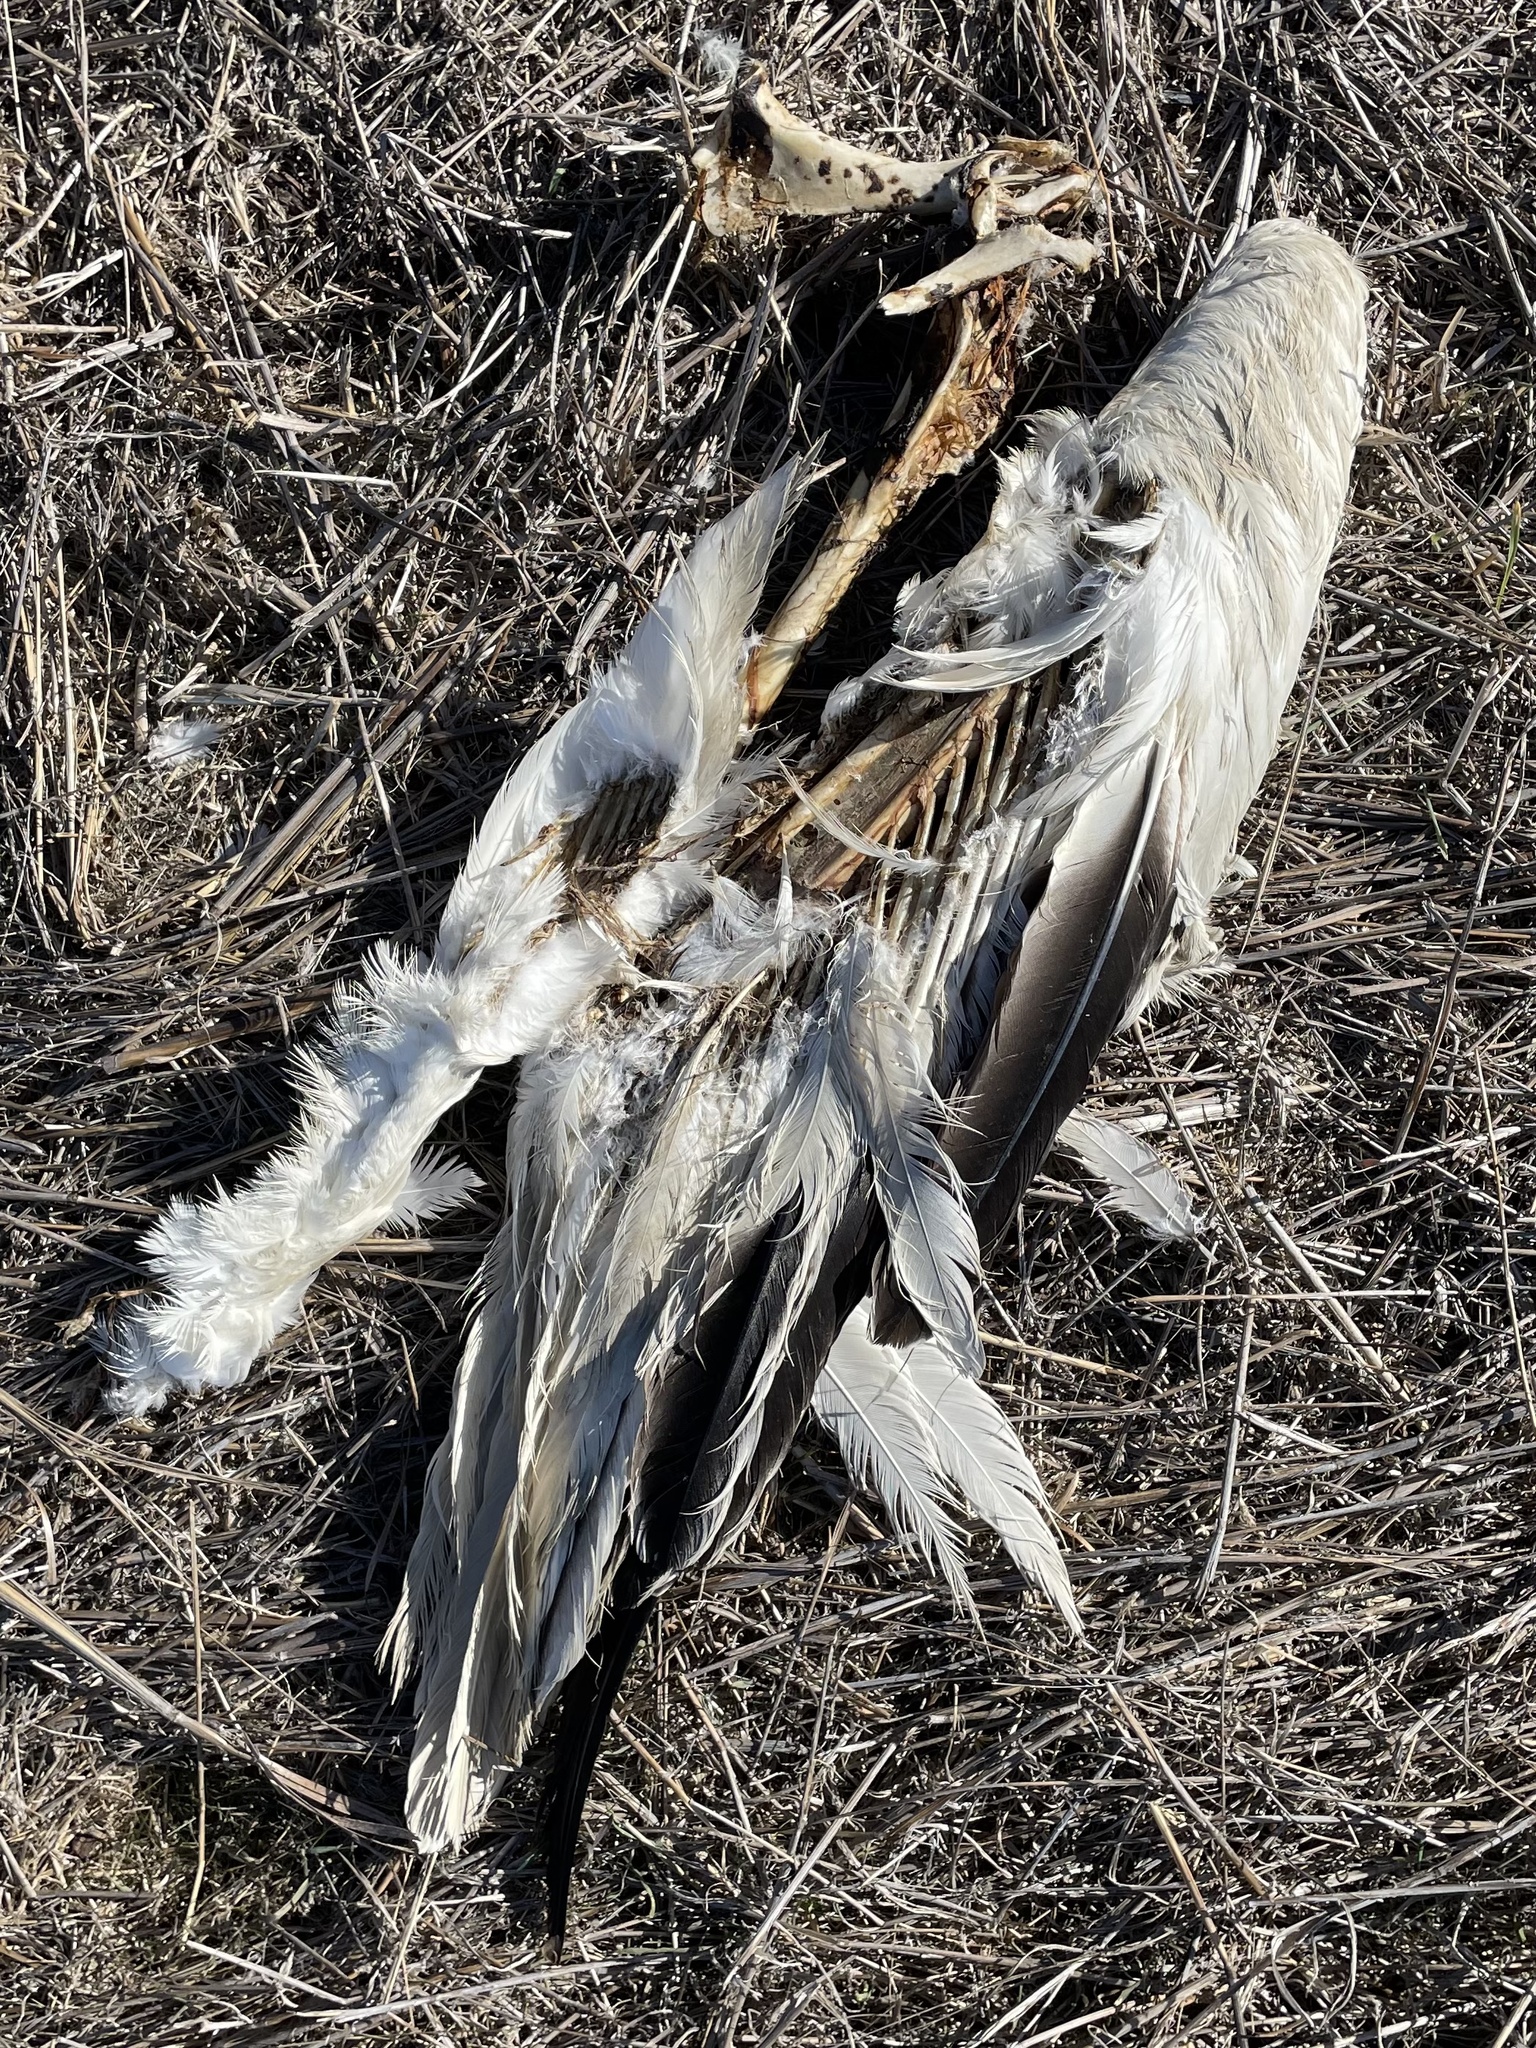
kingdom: Animalia
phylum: Chordata
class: Aves
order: Pelecaniformes
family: Pelecanidae
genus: Pelecanus
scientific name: Pelecanus erythrorhynchos
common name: American white pelican
